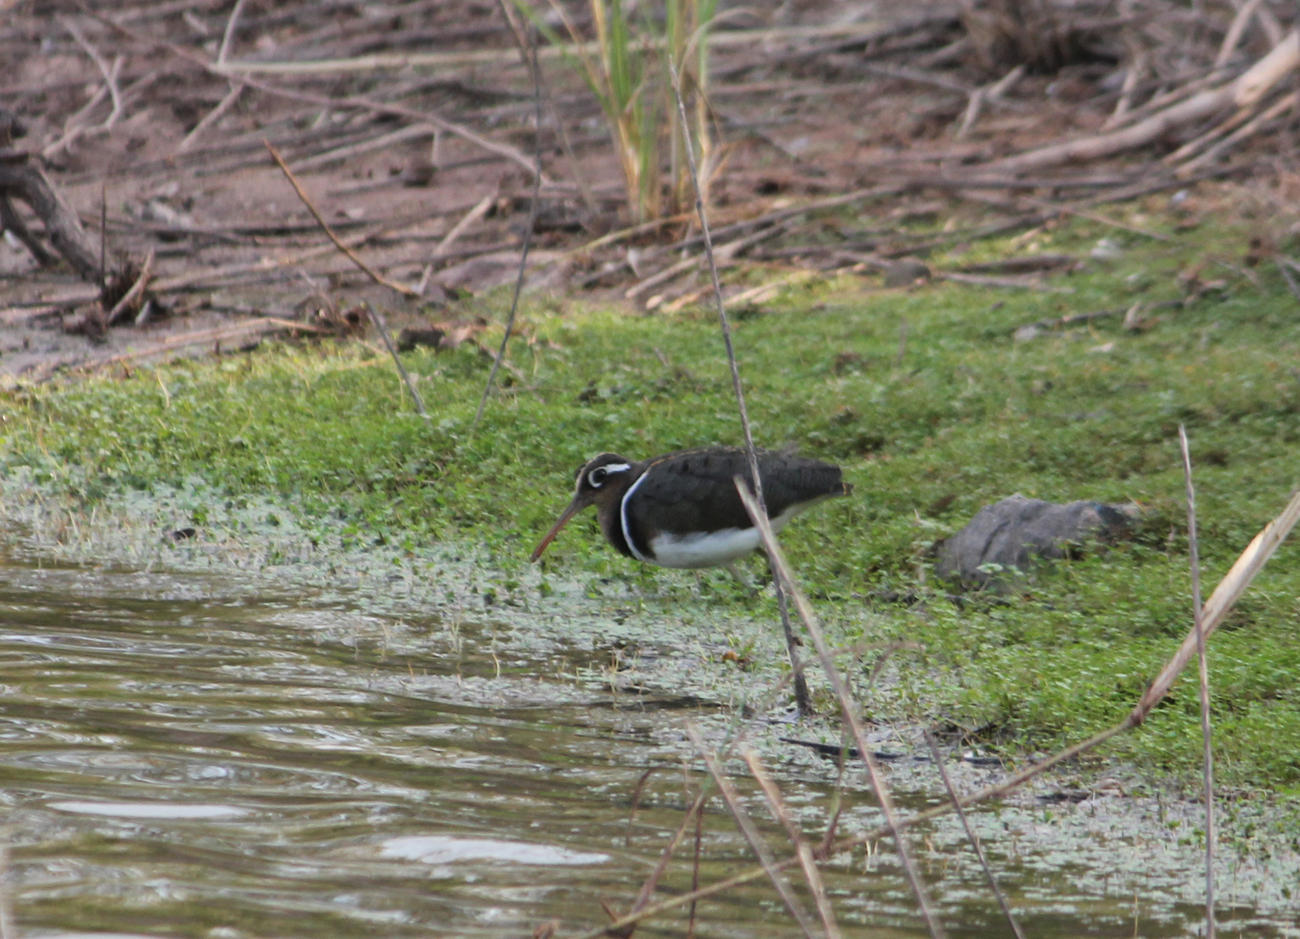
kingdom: Animalia
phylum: Chordata
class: Aves
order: Charadriiformes
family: Rostratulidae
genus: Rostratula
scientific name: Rostratula benghalensis
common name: Greater painted-snipe
